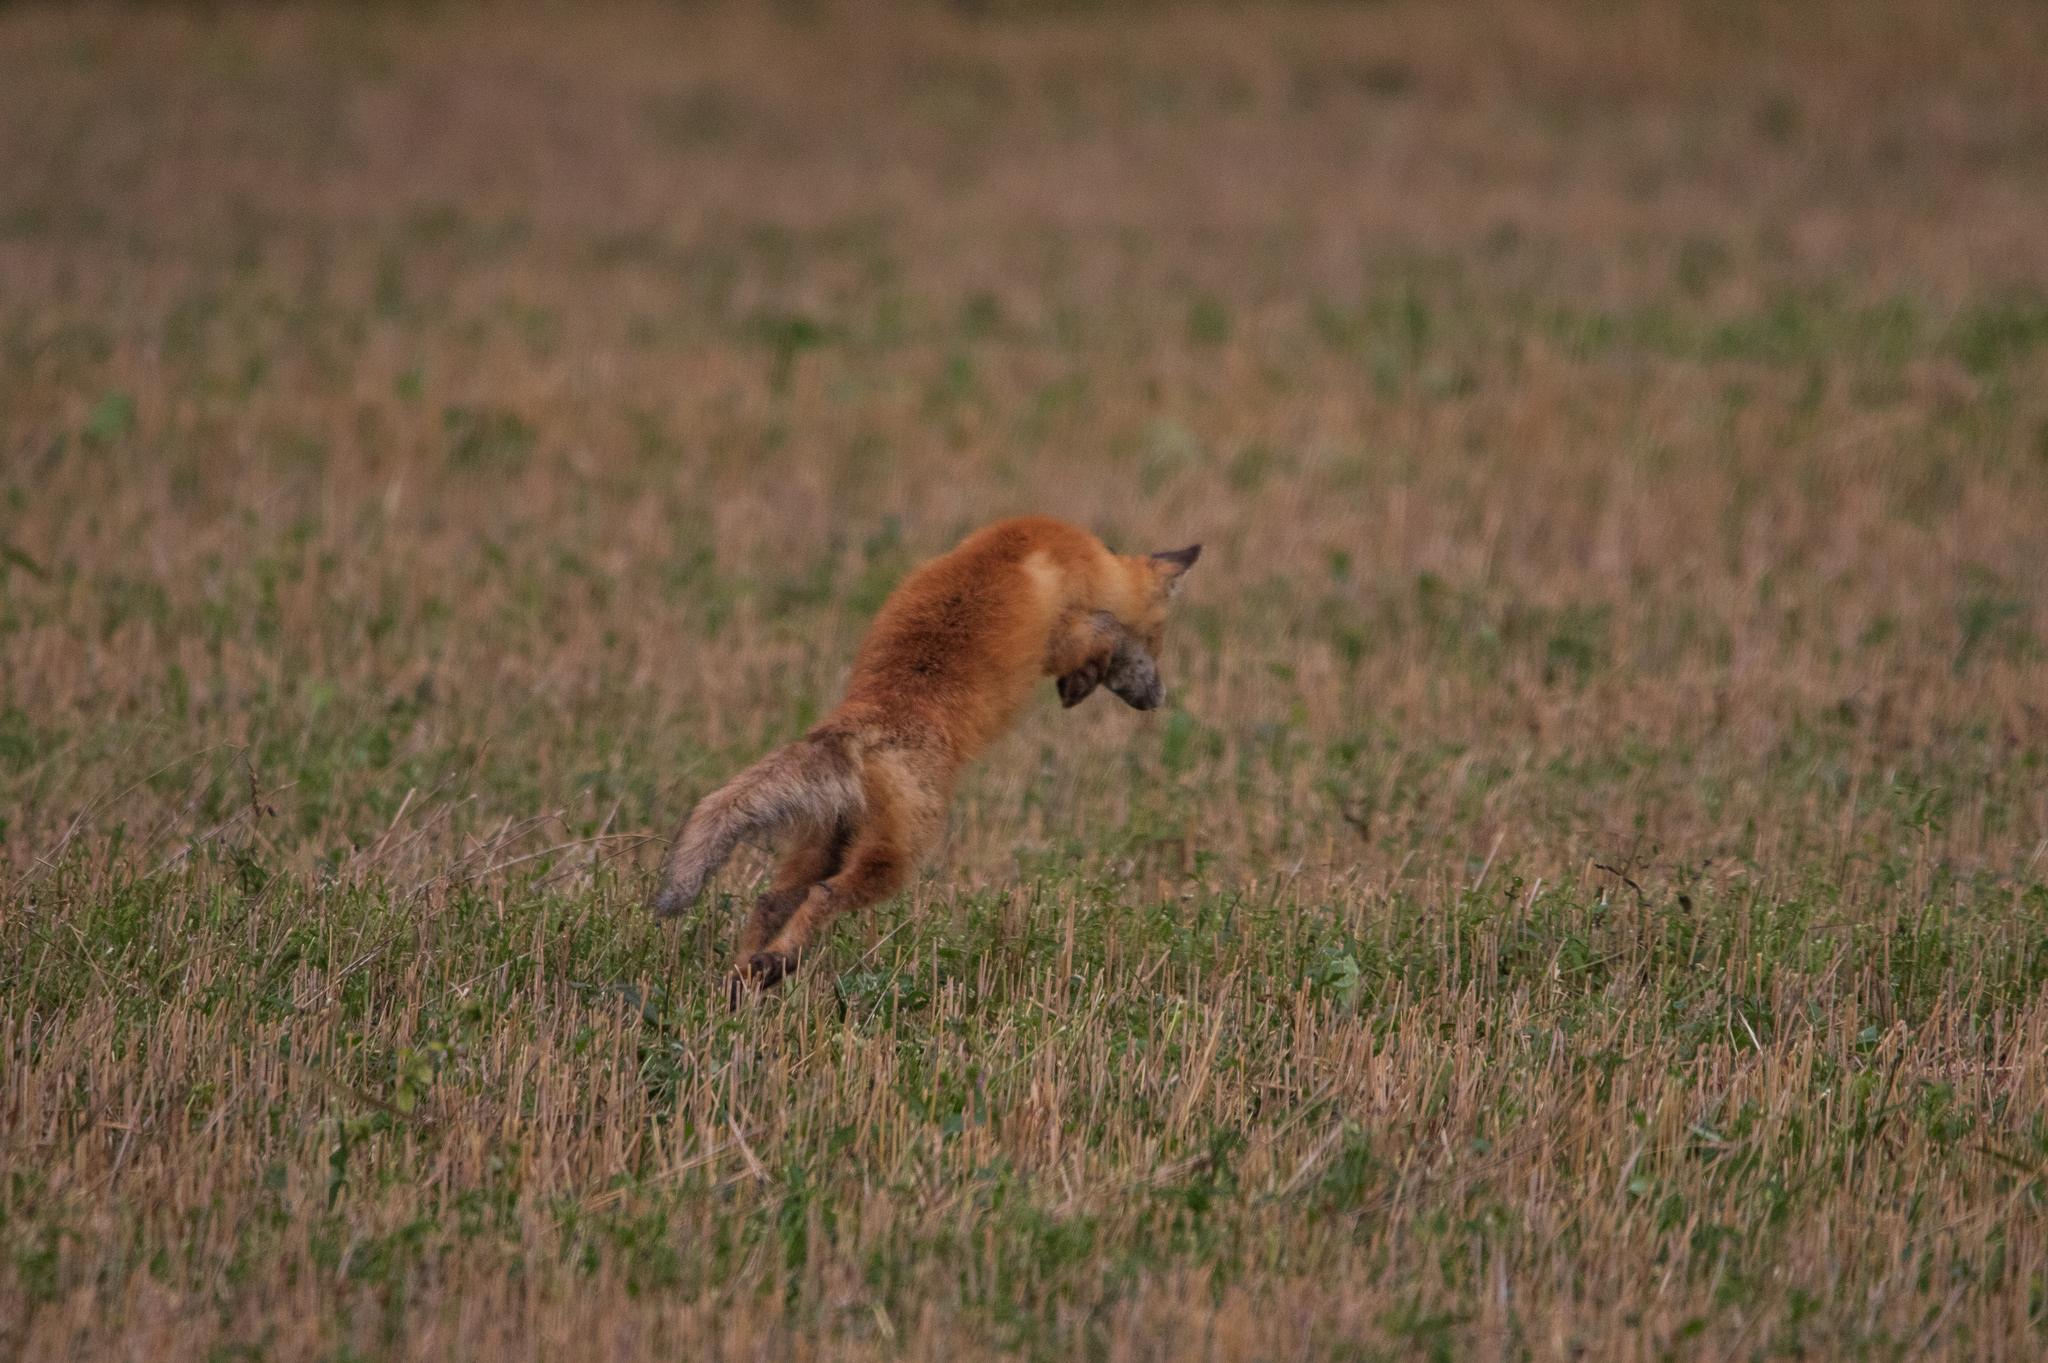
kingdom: Animalia
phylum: Chordata
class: Mammalia
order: Carnivora
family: Canidae
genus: Vulpes
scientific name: Vulpes vulpes
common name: Red fox
